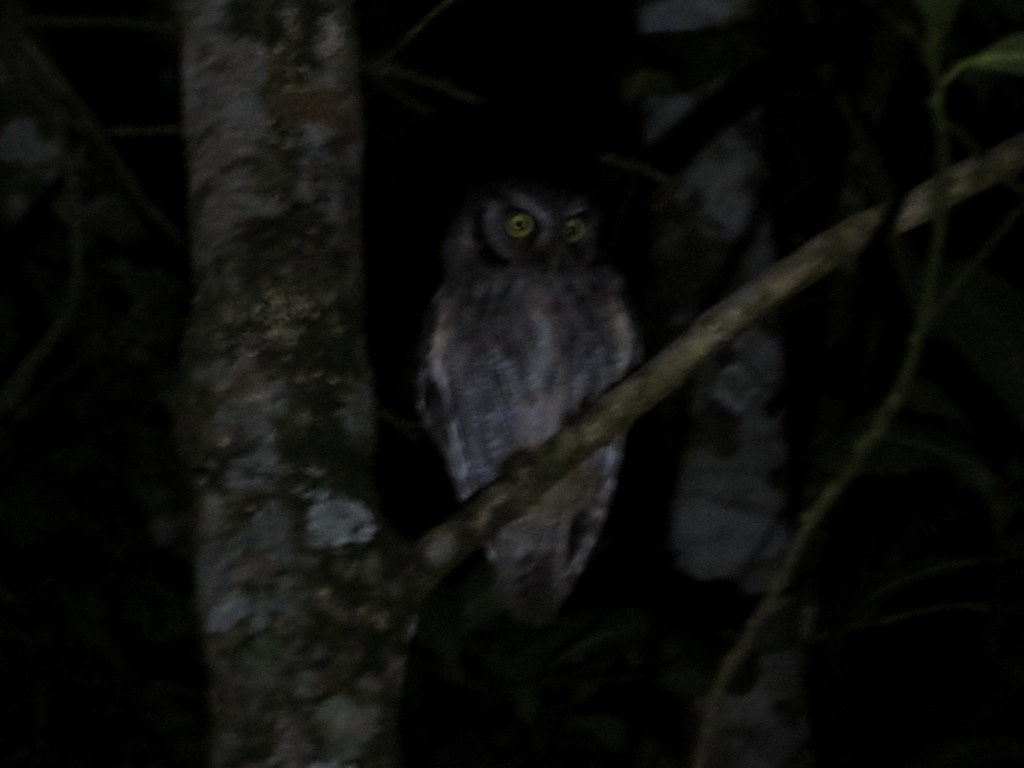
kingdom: Animalia
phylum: Chordata
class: Aves
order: Strigiformes
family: Strigidae
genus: Megascops
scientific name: Megascops choliba
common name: Tropical screech-owl
